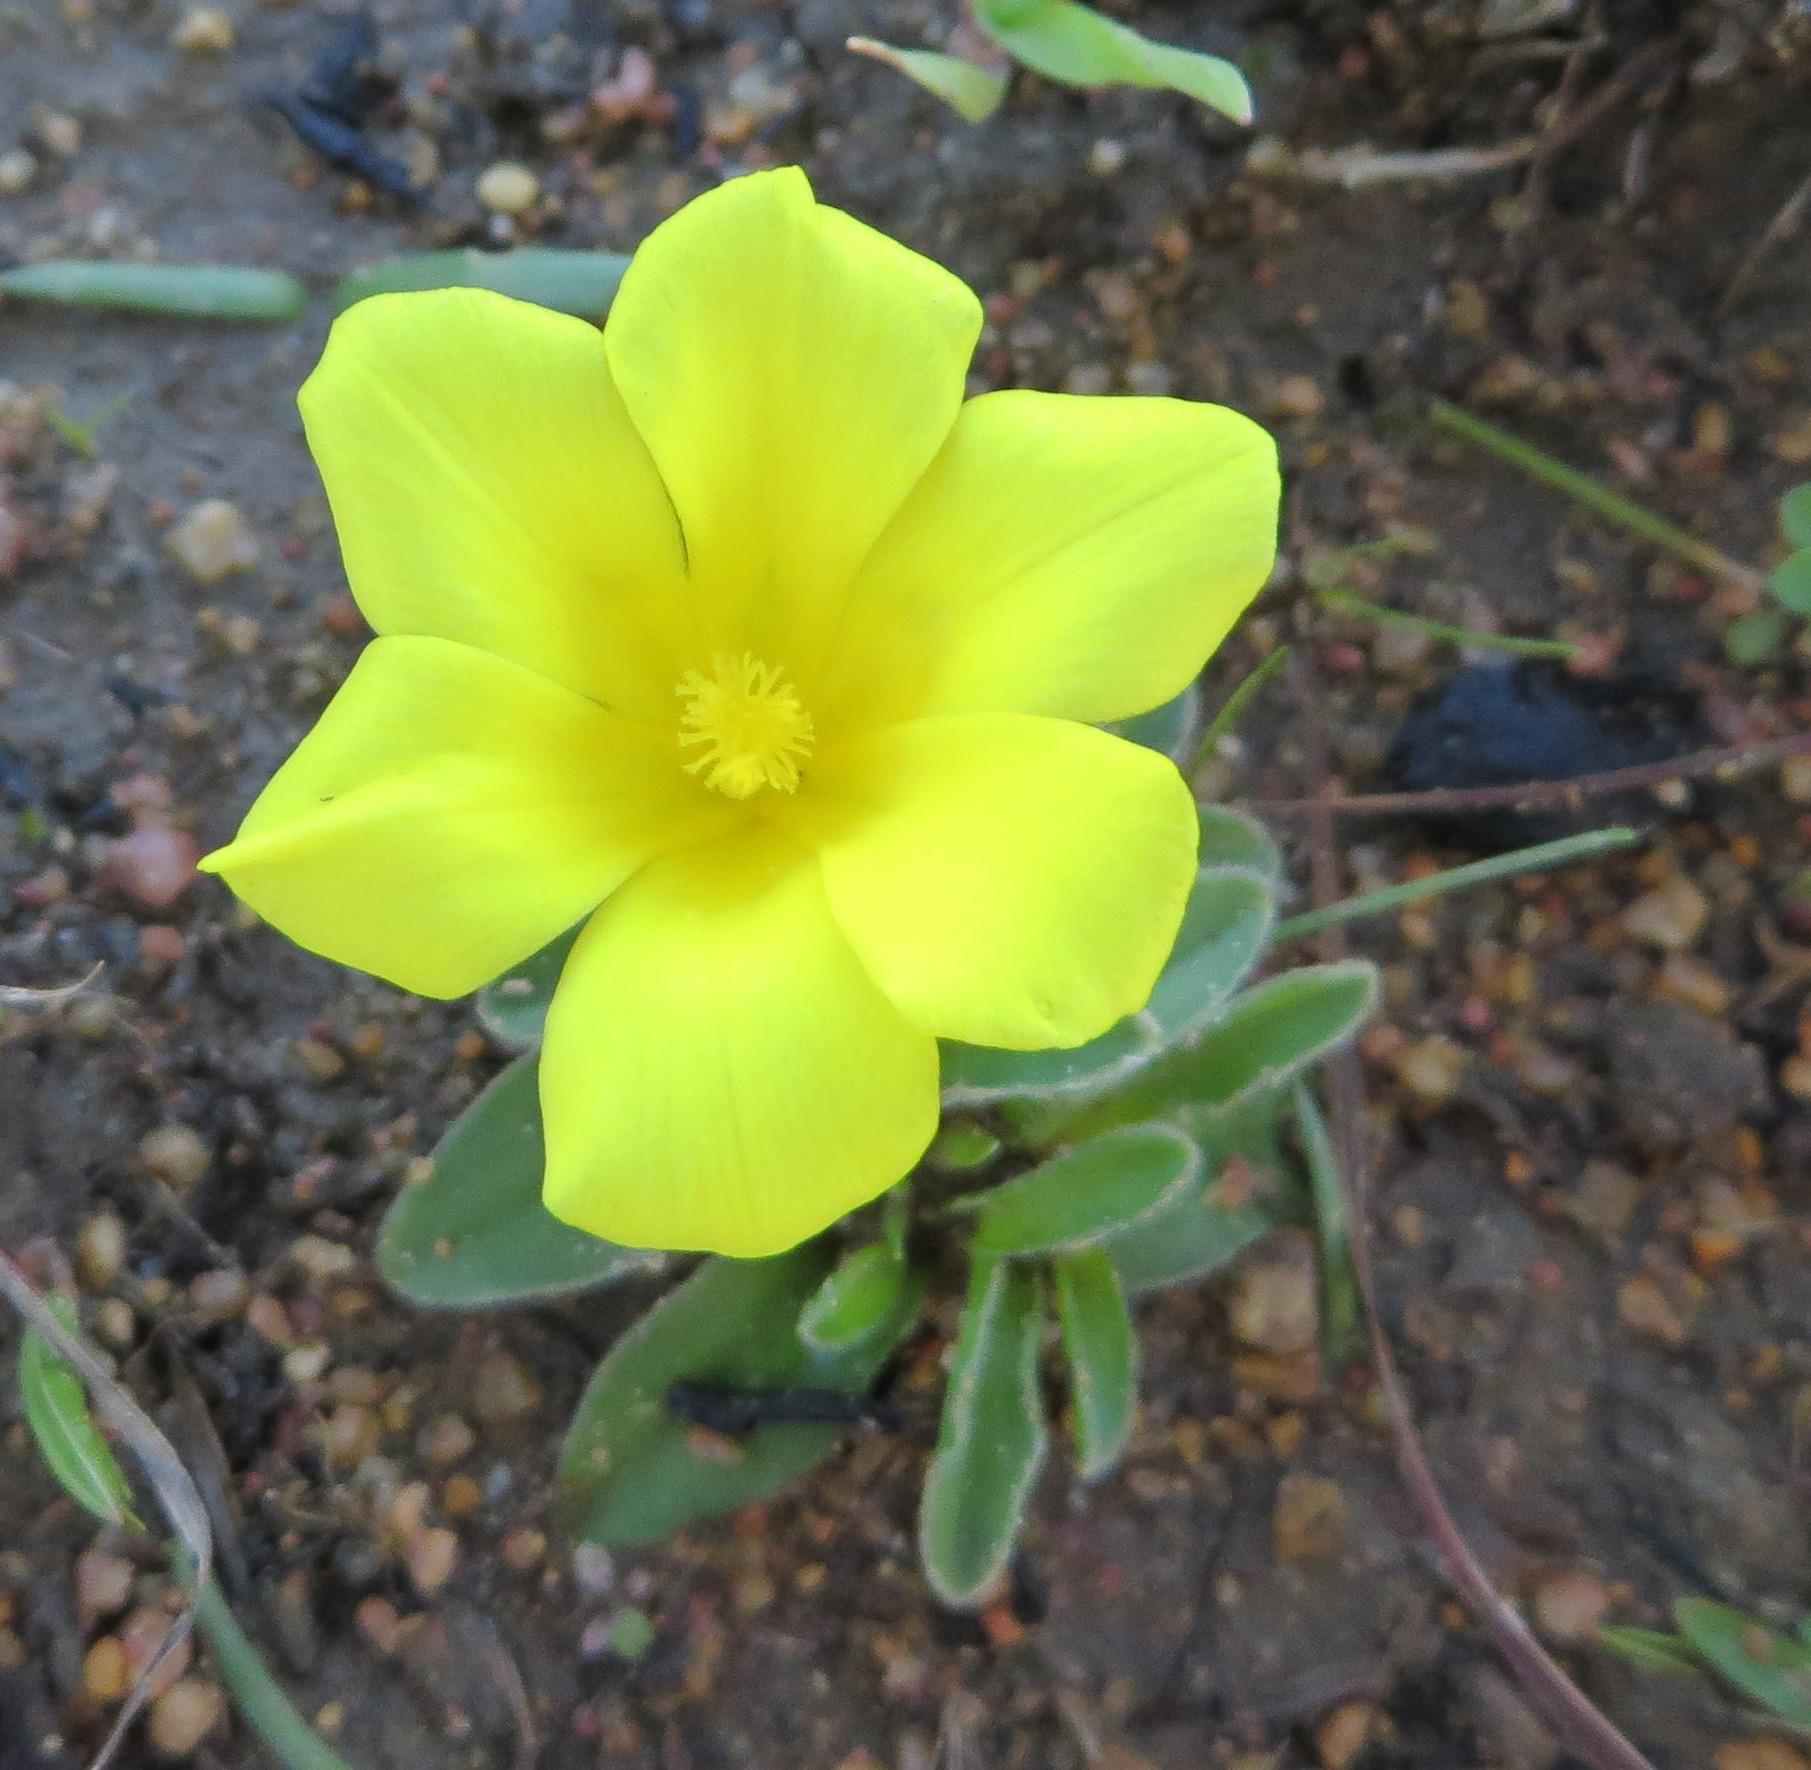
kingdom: Plantae
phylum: Tracheophyta
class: Liliopsida
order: Asparagales
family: Iridaceae
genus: Moraea
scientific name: Moraea galaxia
